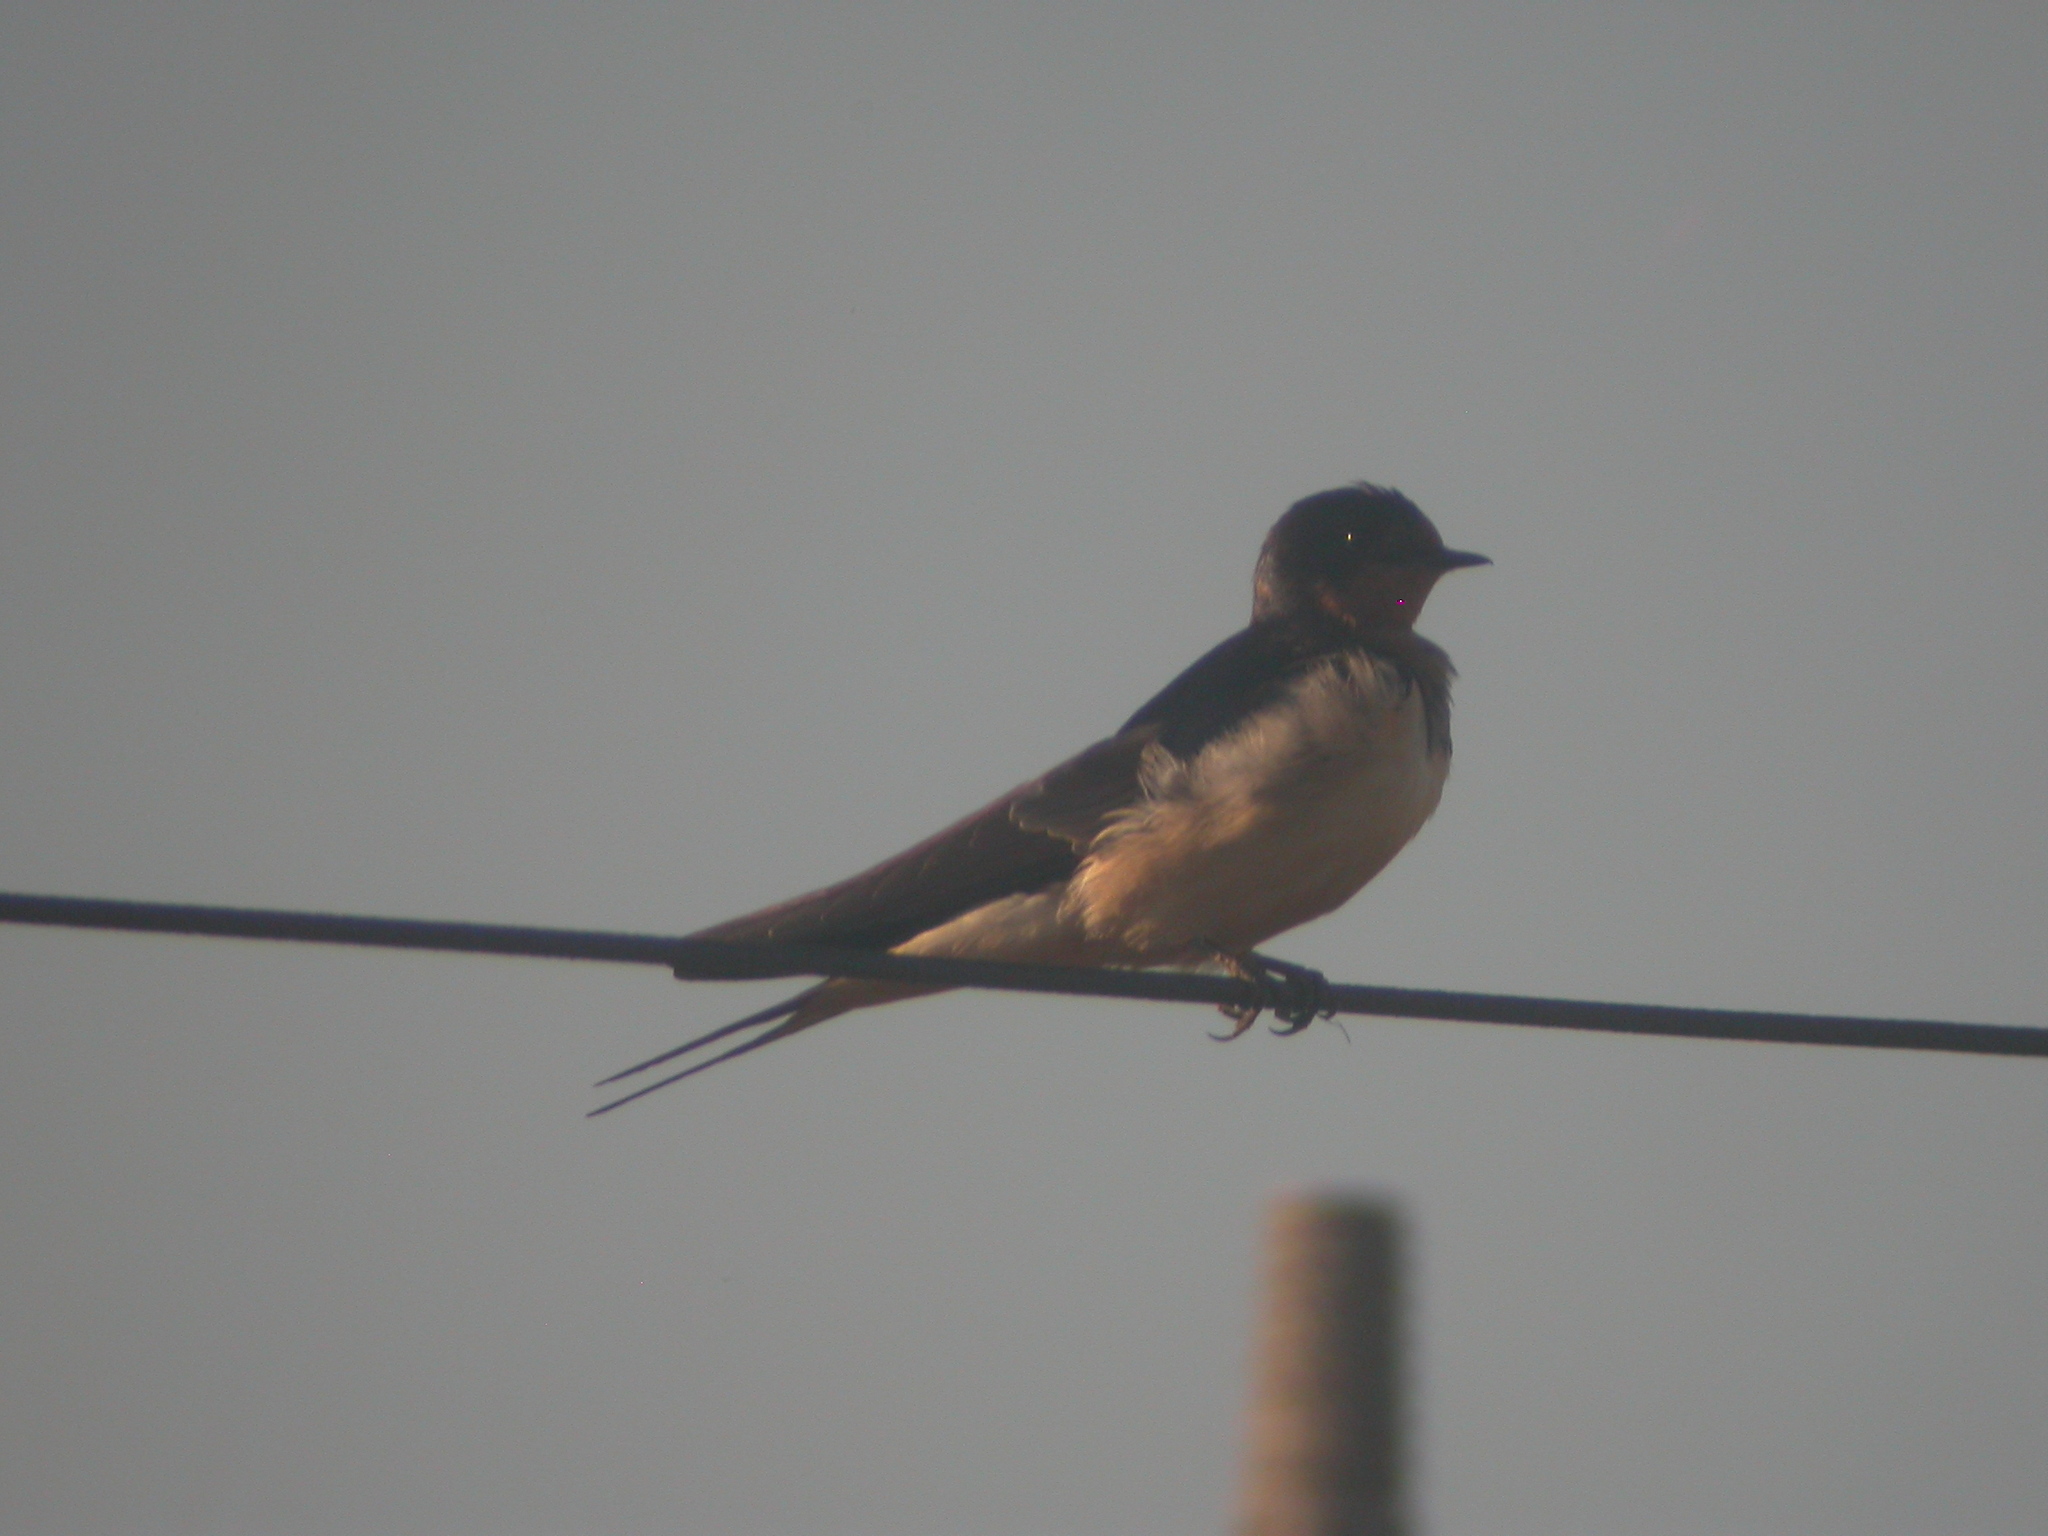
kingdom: Animalia
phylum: Chordata
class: Aves
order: Passeriformes
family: Hirundinidae
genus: Hirundo
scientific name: Hirundo rustica
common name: Barn swallow
